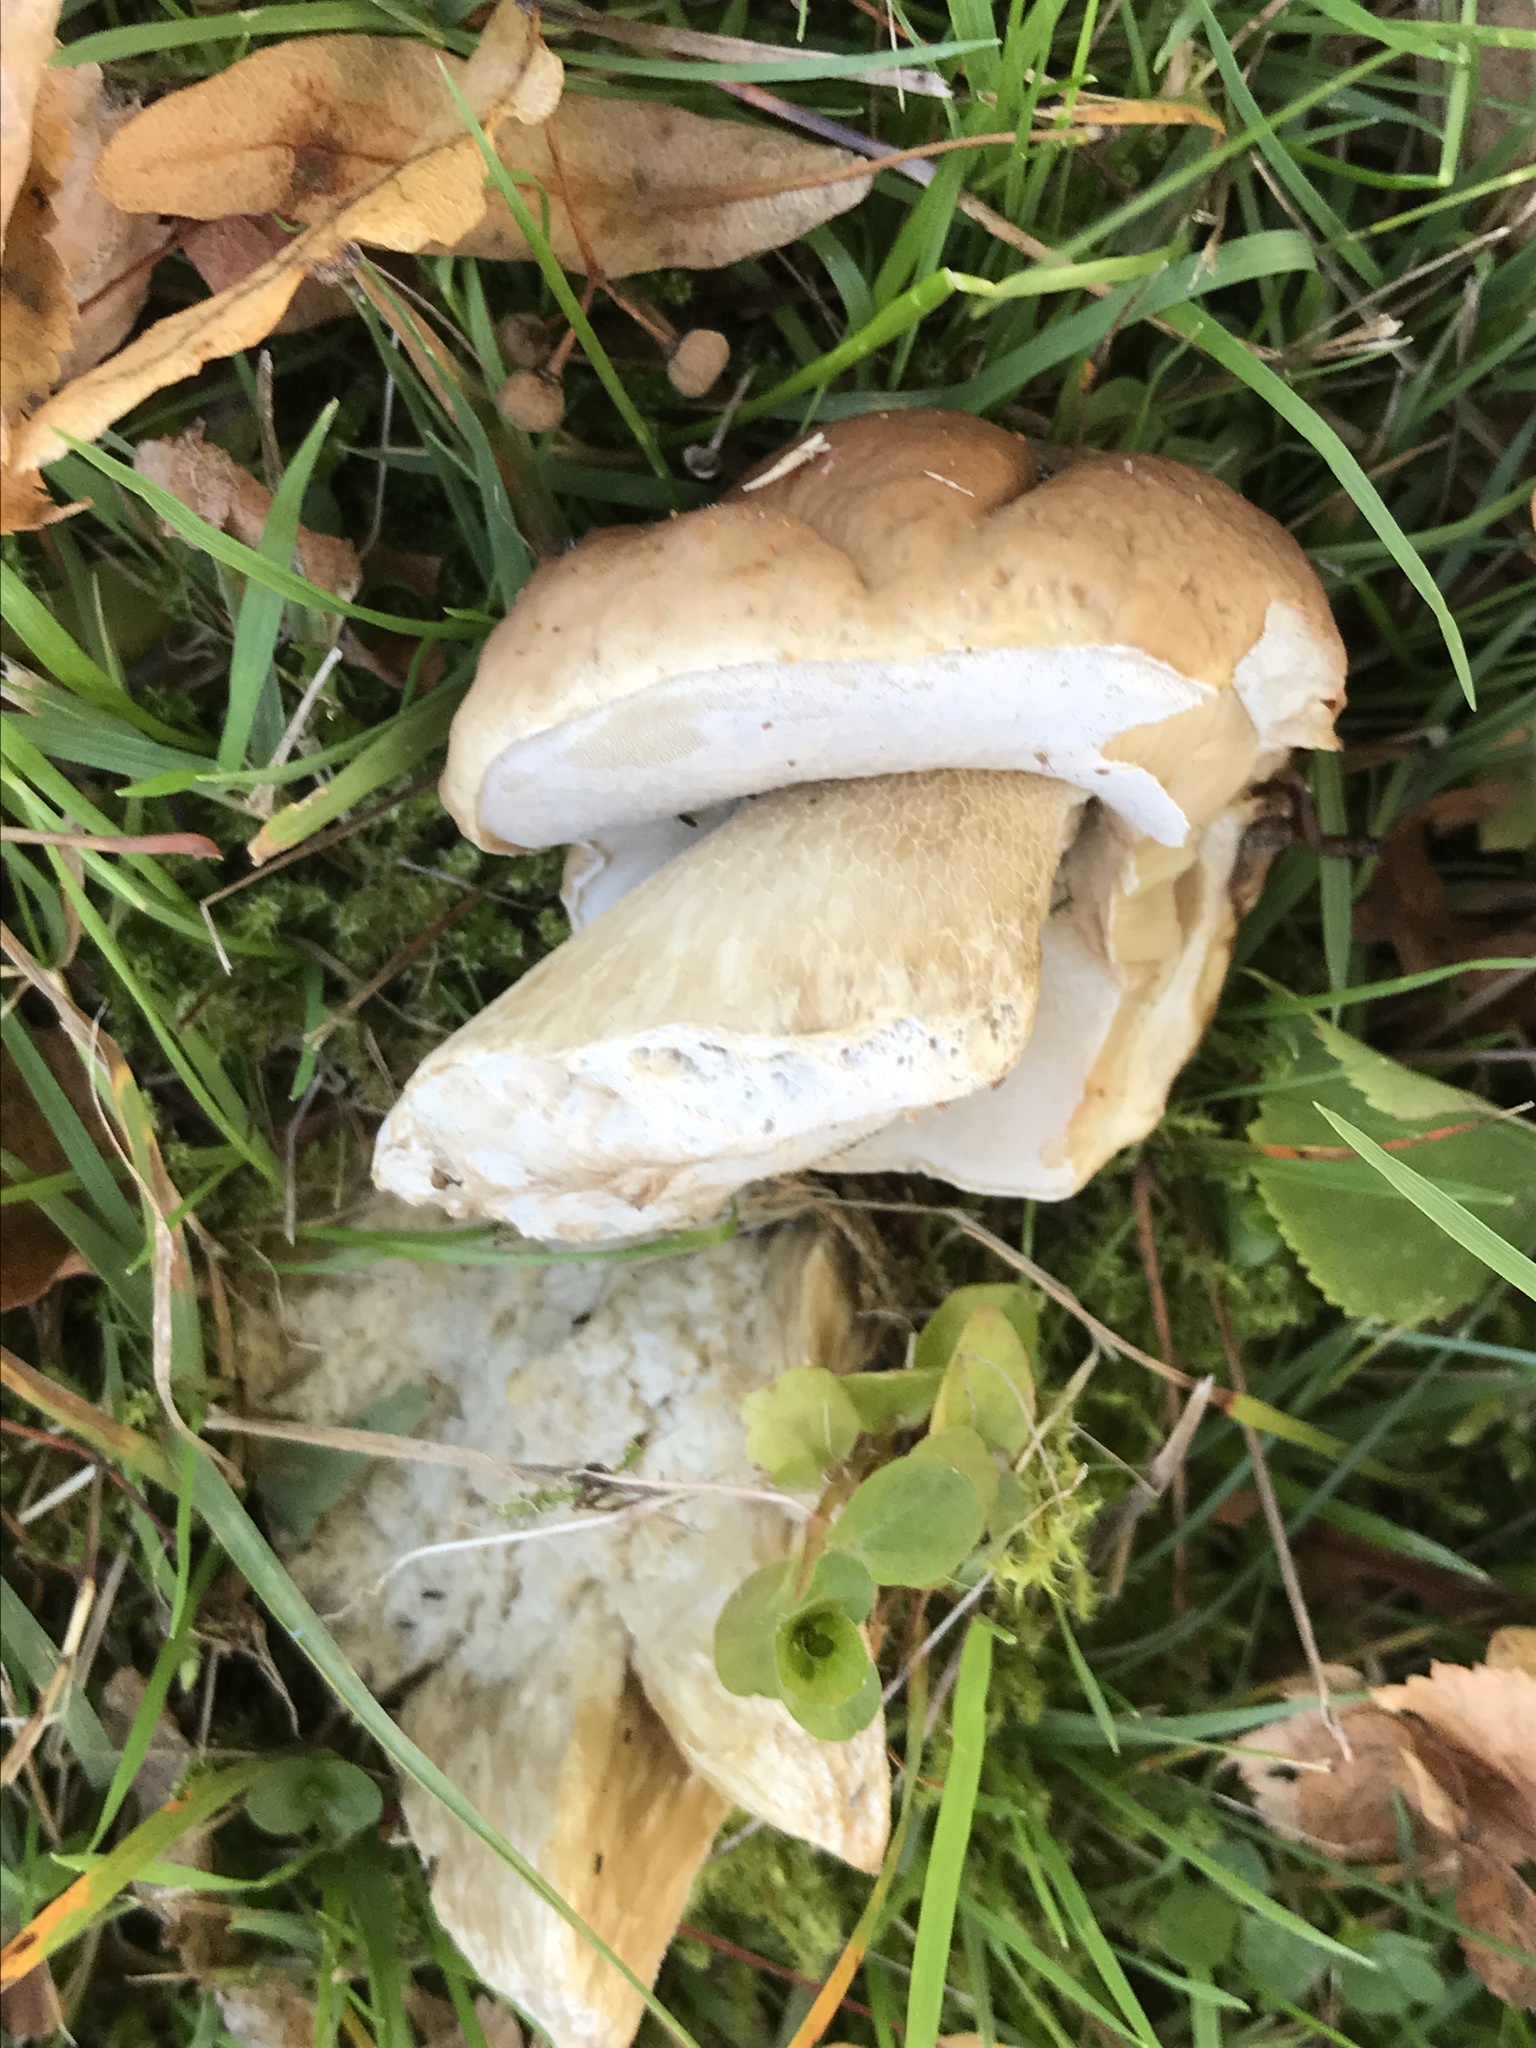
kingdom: Fungi
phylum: Basidiomycota
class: Agaricomycetes
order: Boletales
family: Boletaceae
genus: Boletus
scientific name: Boletus edulis
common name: Cep
